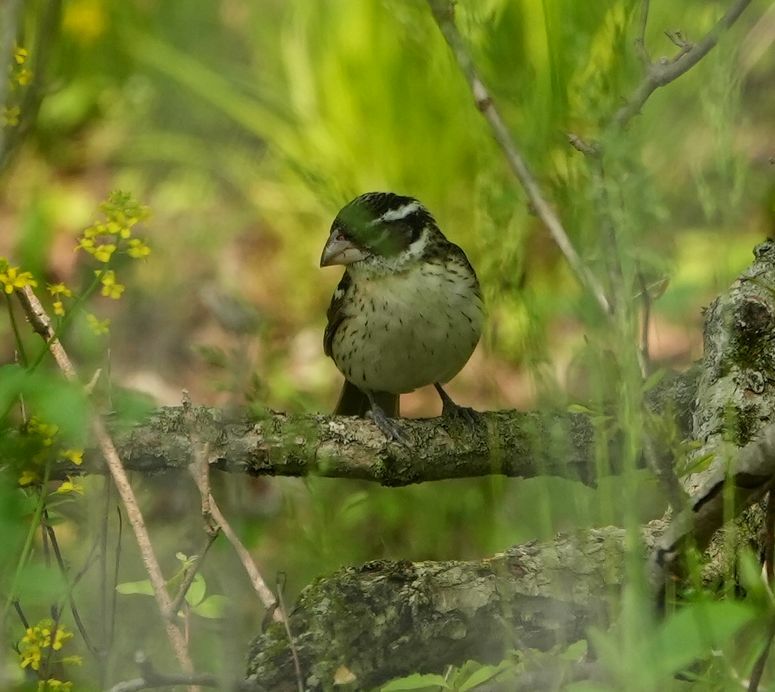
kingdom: Animalia
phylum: Chordata
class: Aves
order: Passeriformes
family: Cardinalidae
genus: Pheucticus
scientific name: Pheucticus ludovicianus
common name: Rose-breasted grosbeak
